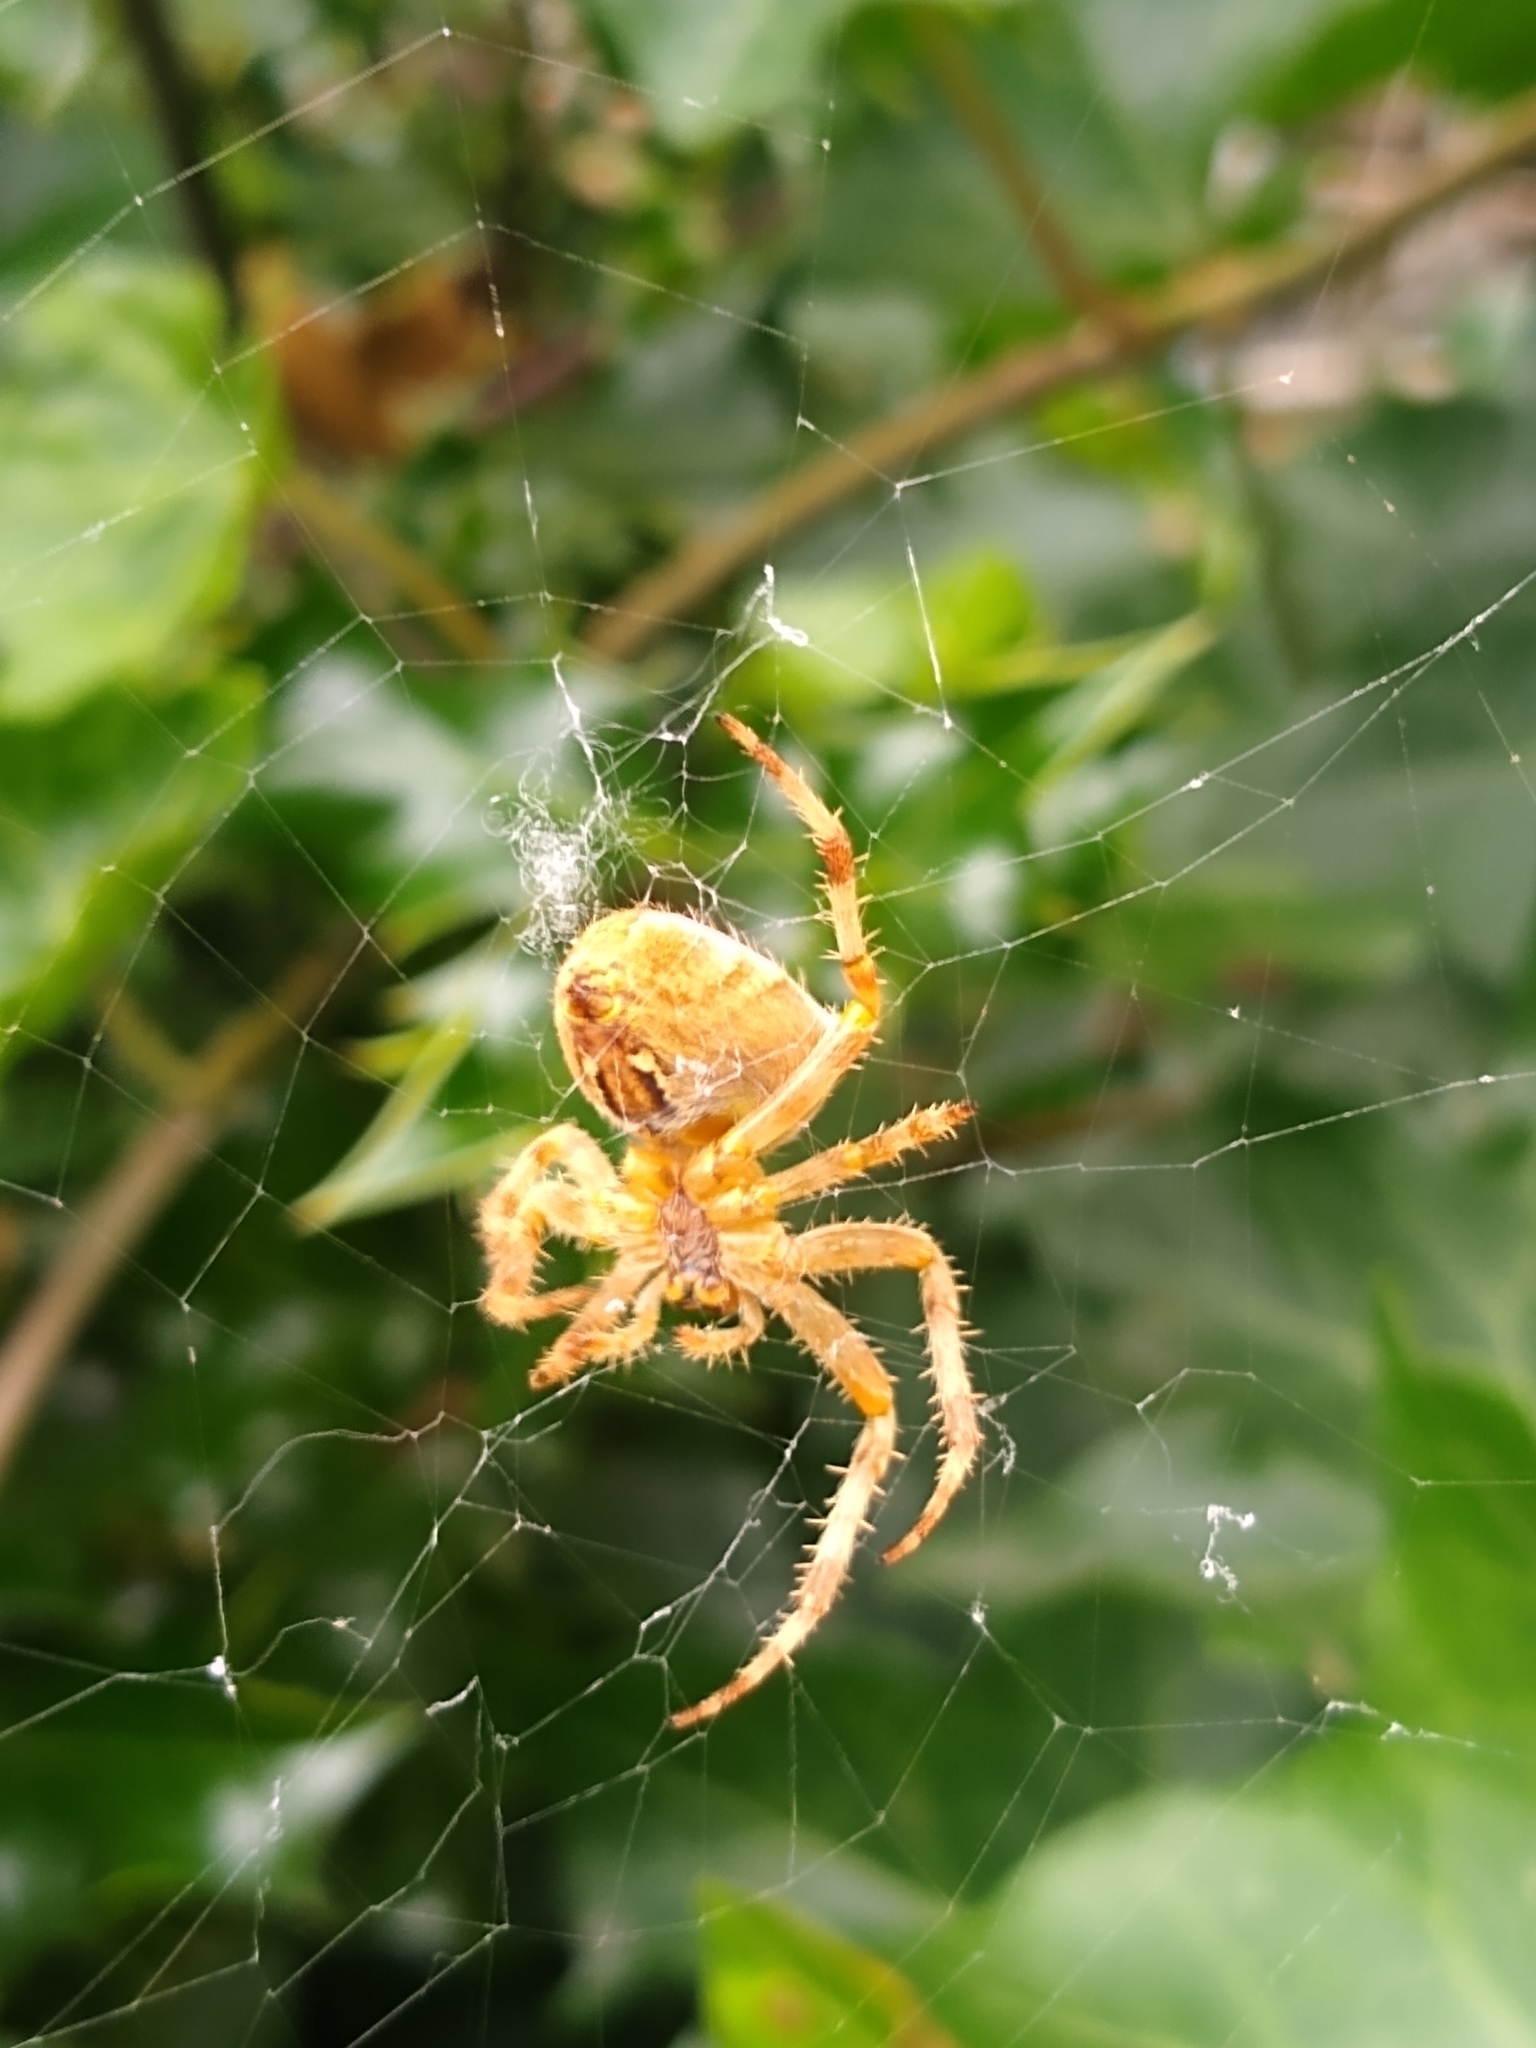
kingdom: Animalia
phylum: Arthropoda
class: Arachnida
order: Araneae
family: Araneidae
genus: Araneus
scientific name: Araneus diadematus
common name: Cross orbweaver
